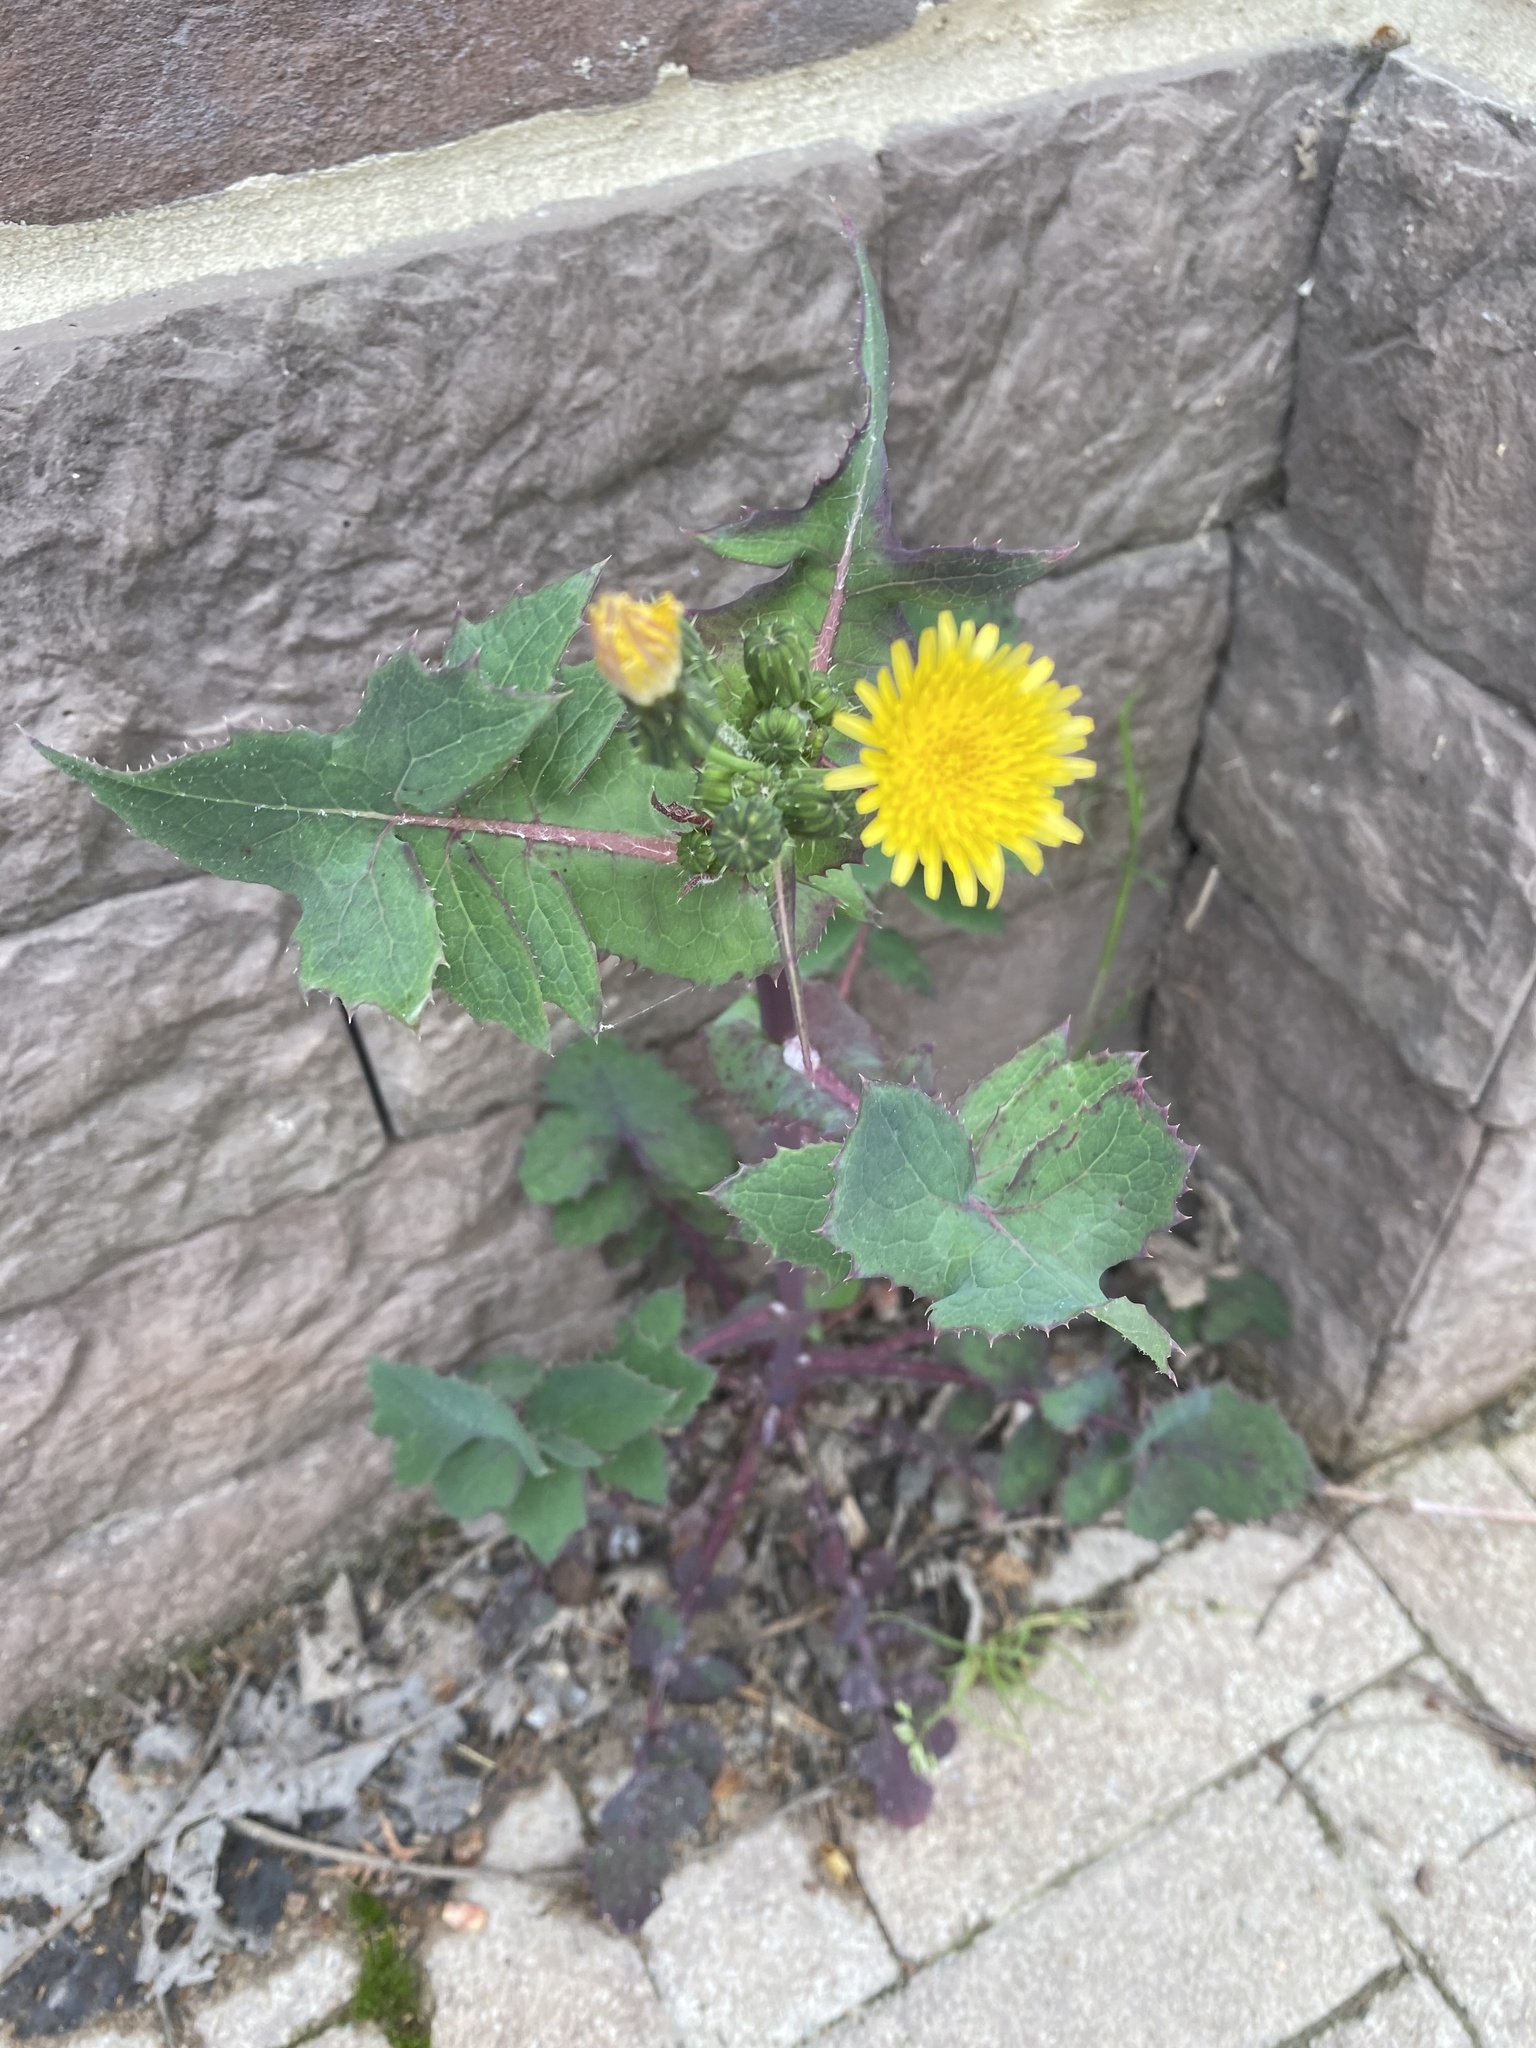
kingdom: Plantae
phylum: Tracheophyta
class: Magnoliopsida
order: Asterales
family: Asteraceae
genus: Sonchus
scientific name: Sonchus oleraceus
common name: Common sowthistle
